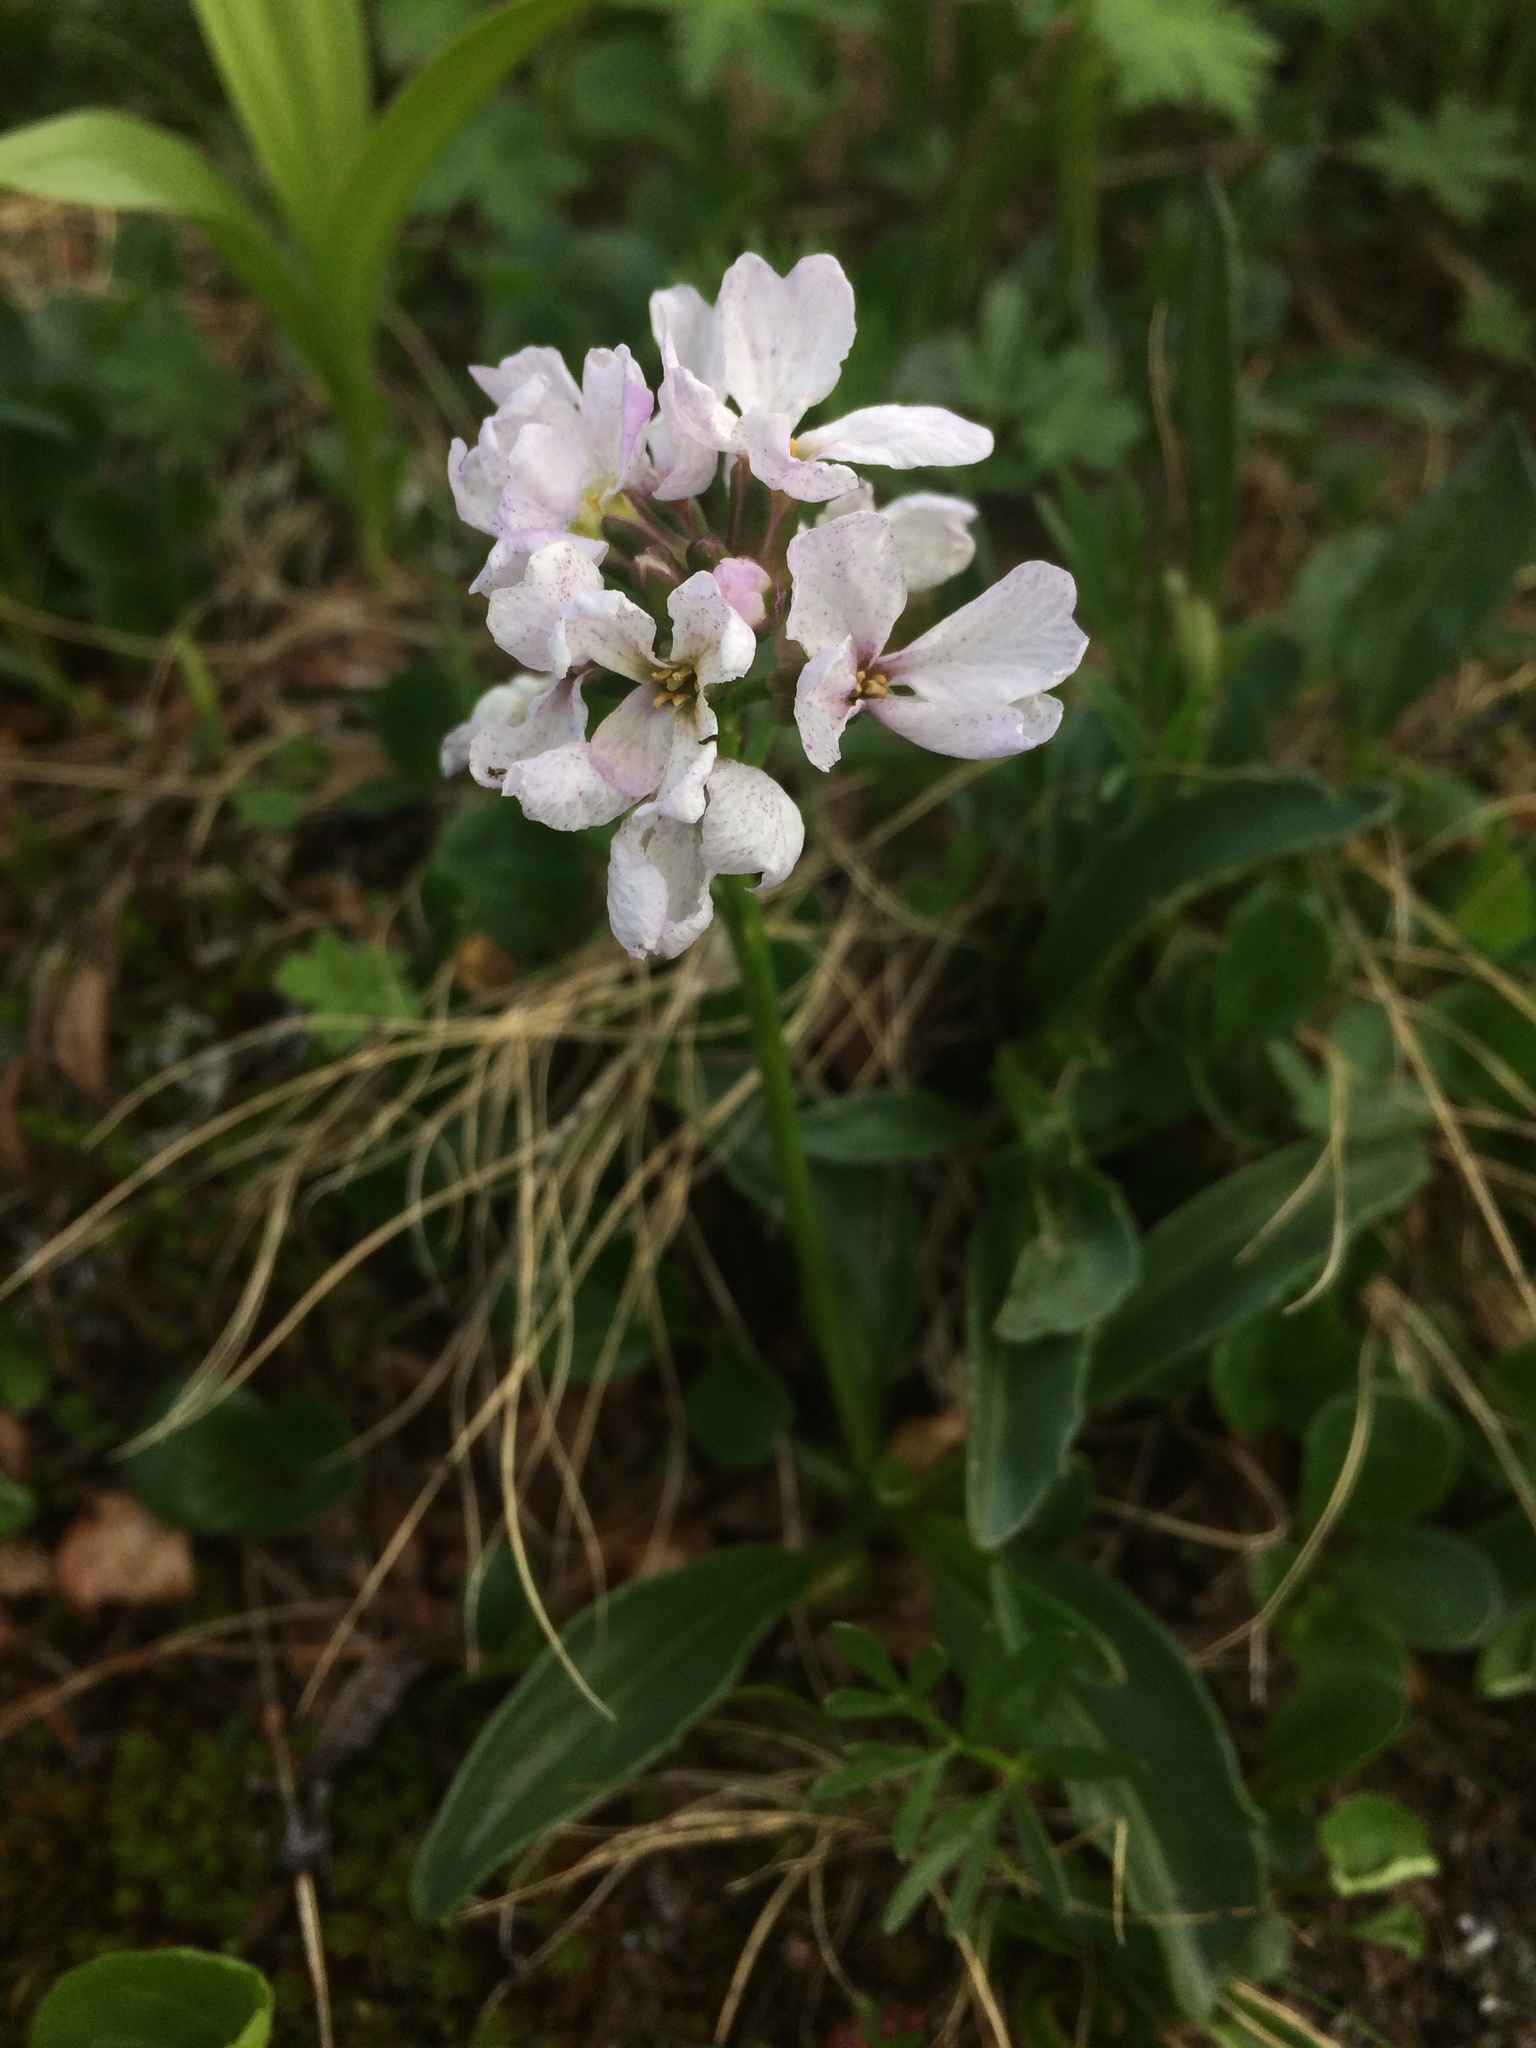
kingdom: Plantae
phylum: Tracheophyta
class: Magnoliopsida
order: Brassicales
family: Brassicaceae
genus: Parrya
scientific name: Parrya nudicaulis
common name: Naked-stemmed false wallflower
